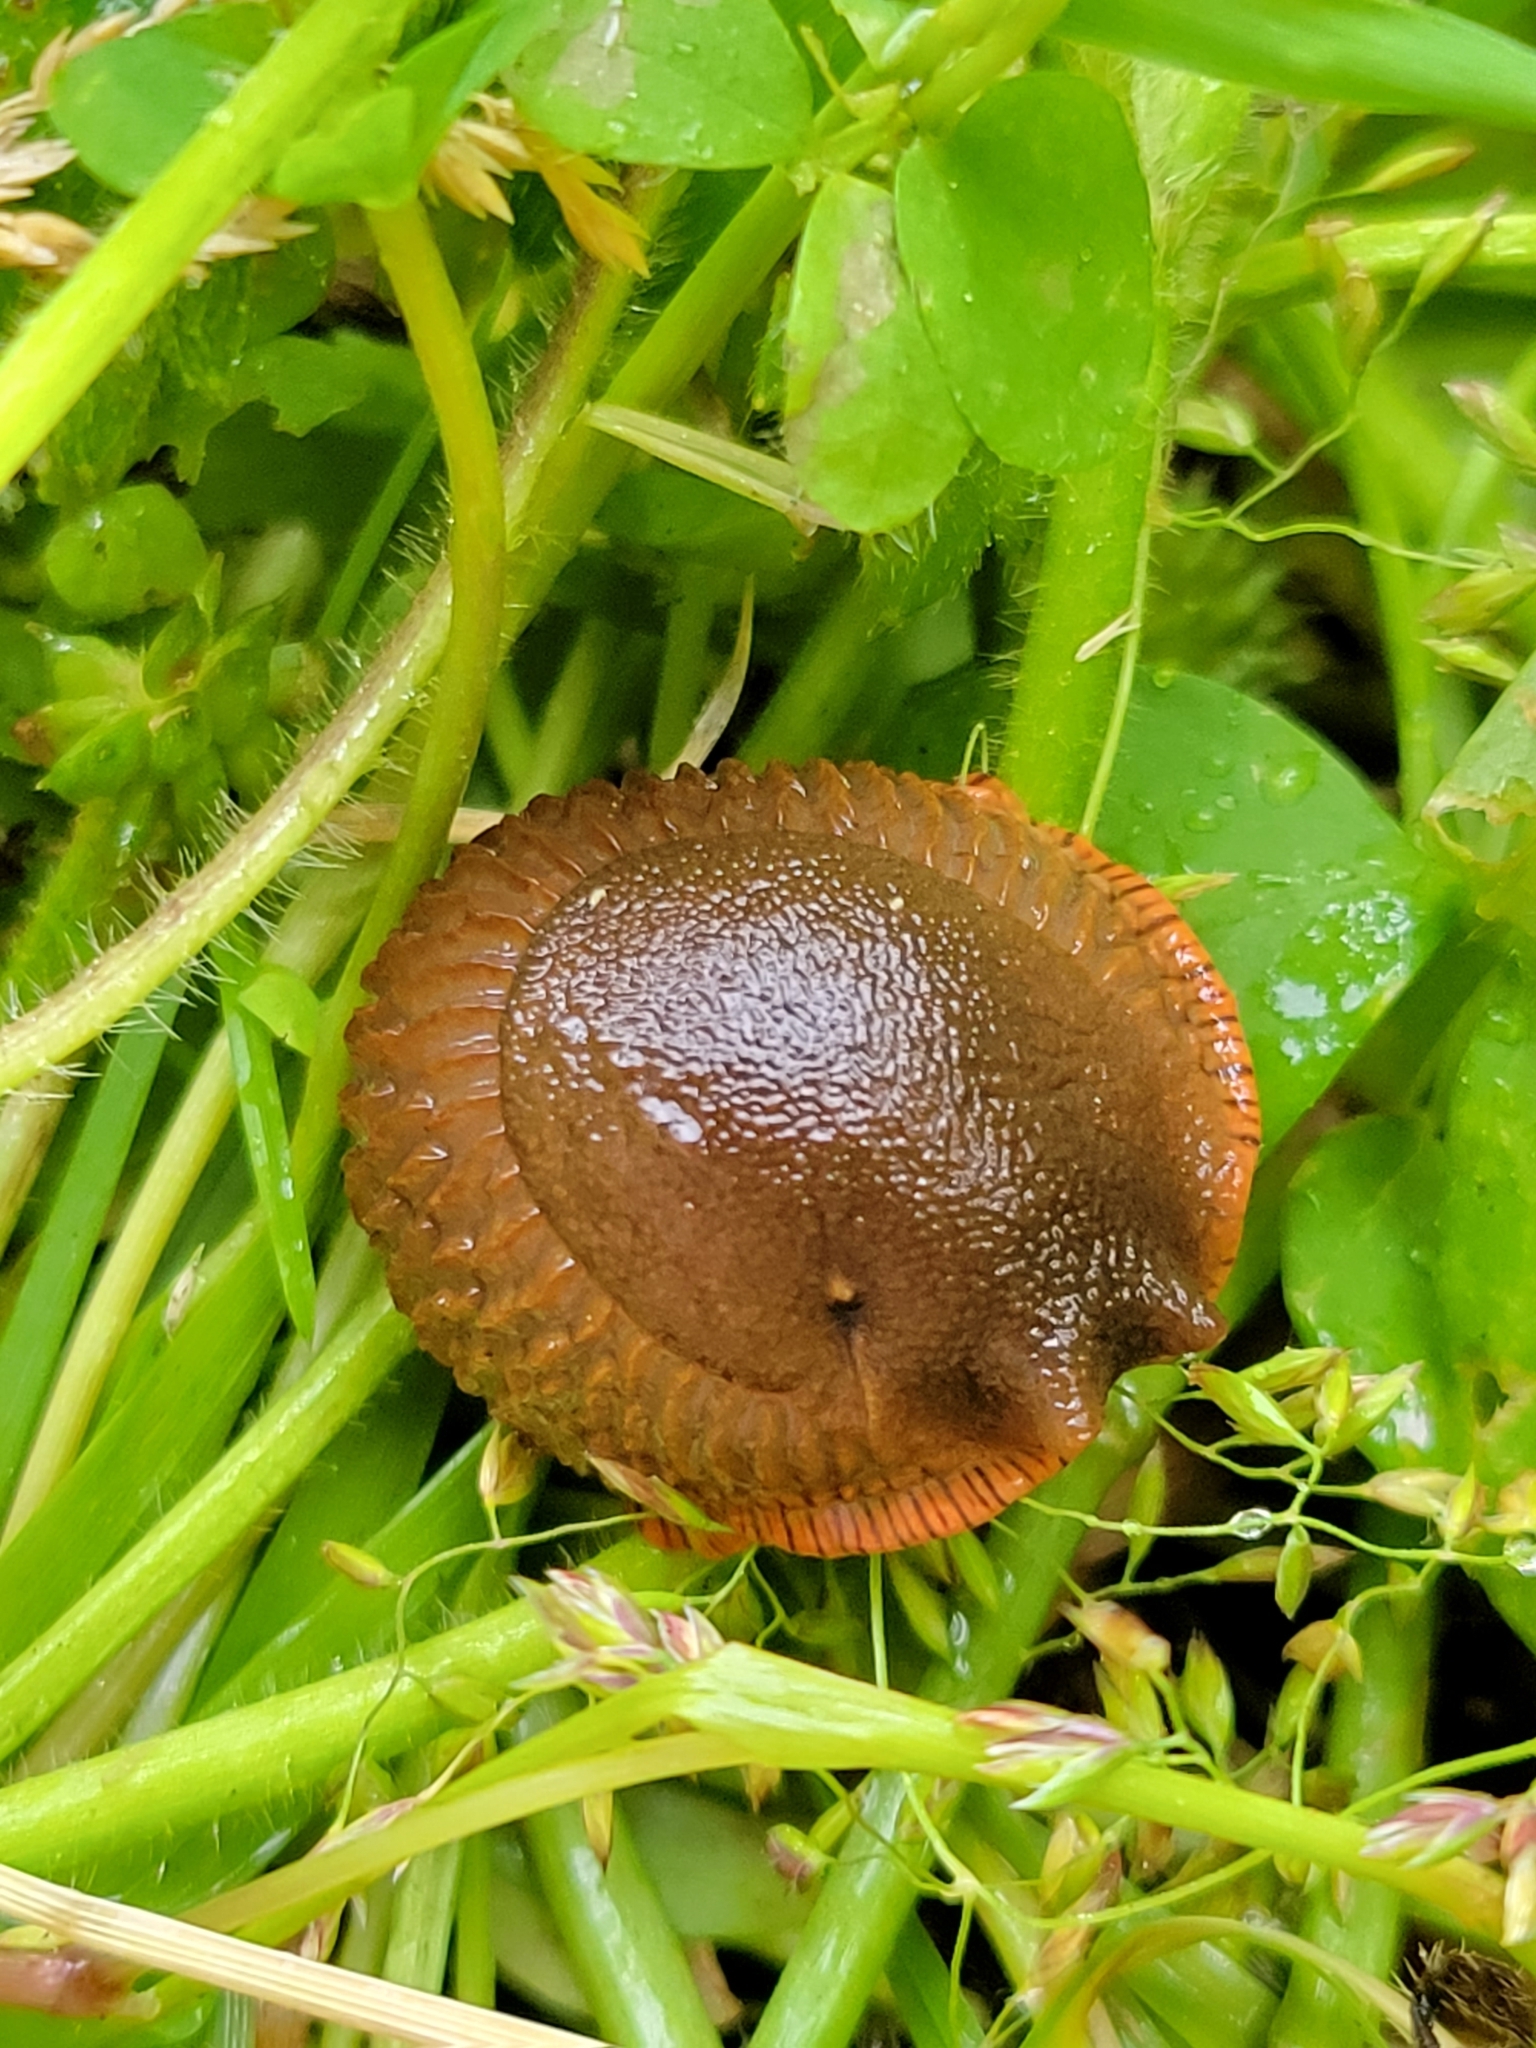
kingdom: Animalia
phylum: Mollusca
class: Gastropoda
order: Stylommatophora
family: Arionidae
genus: Arion
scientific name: Arion
